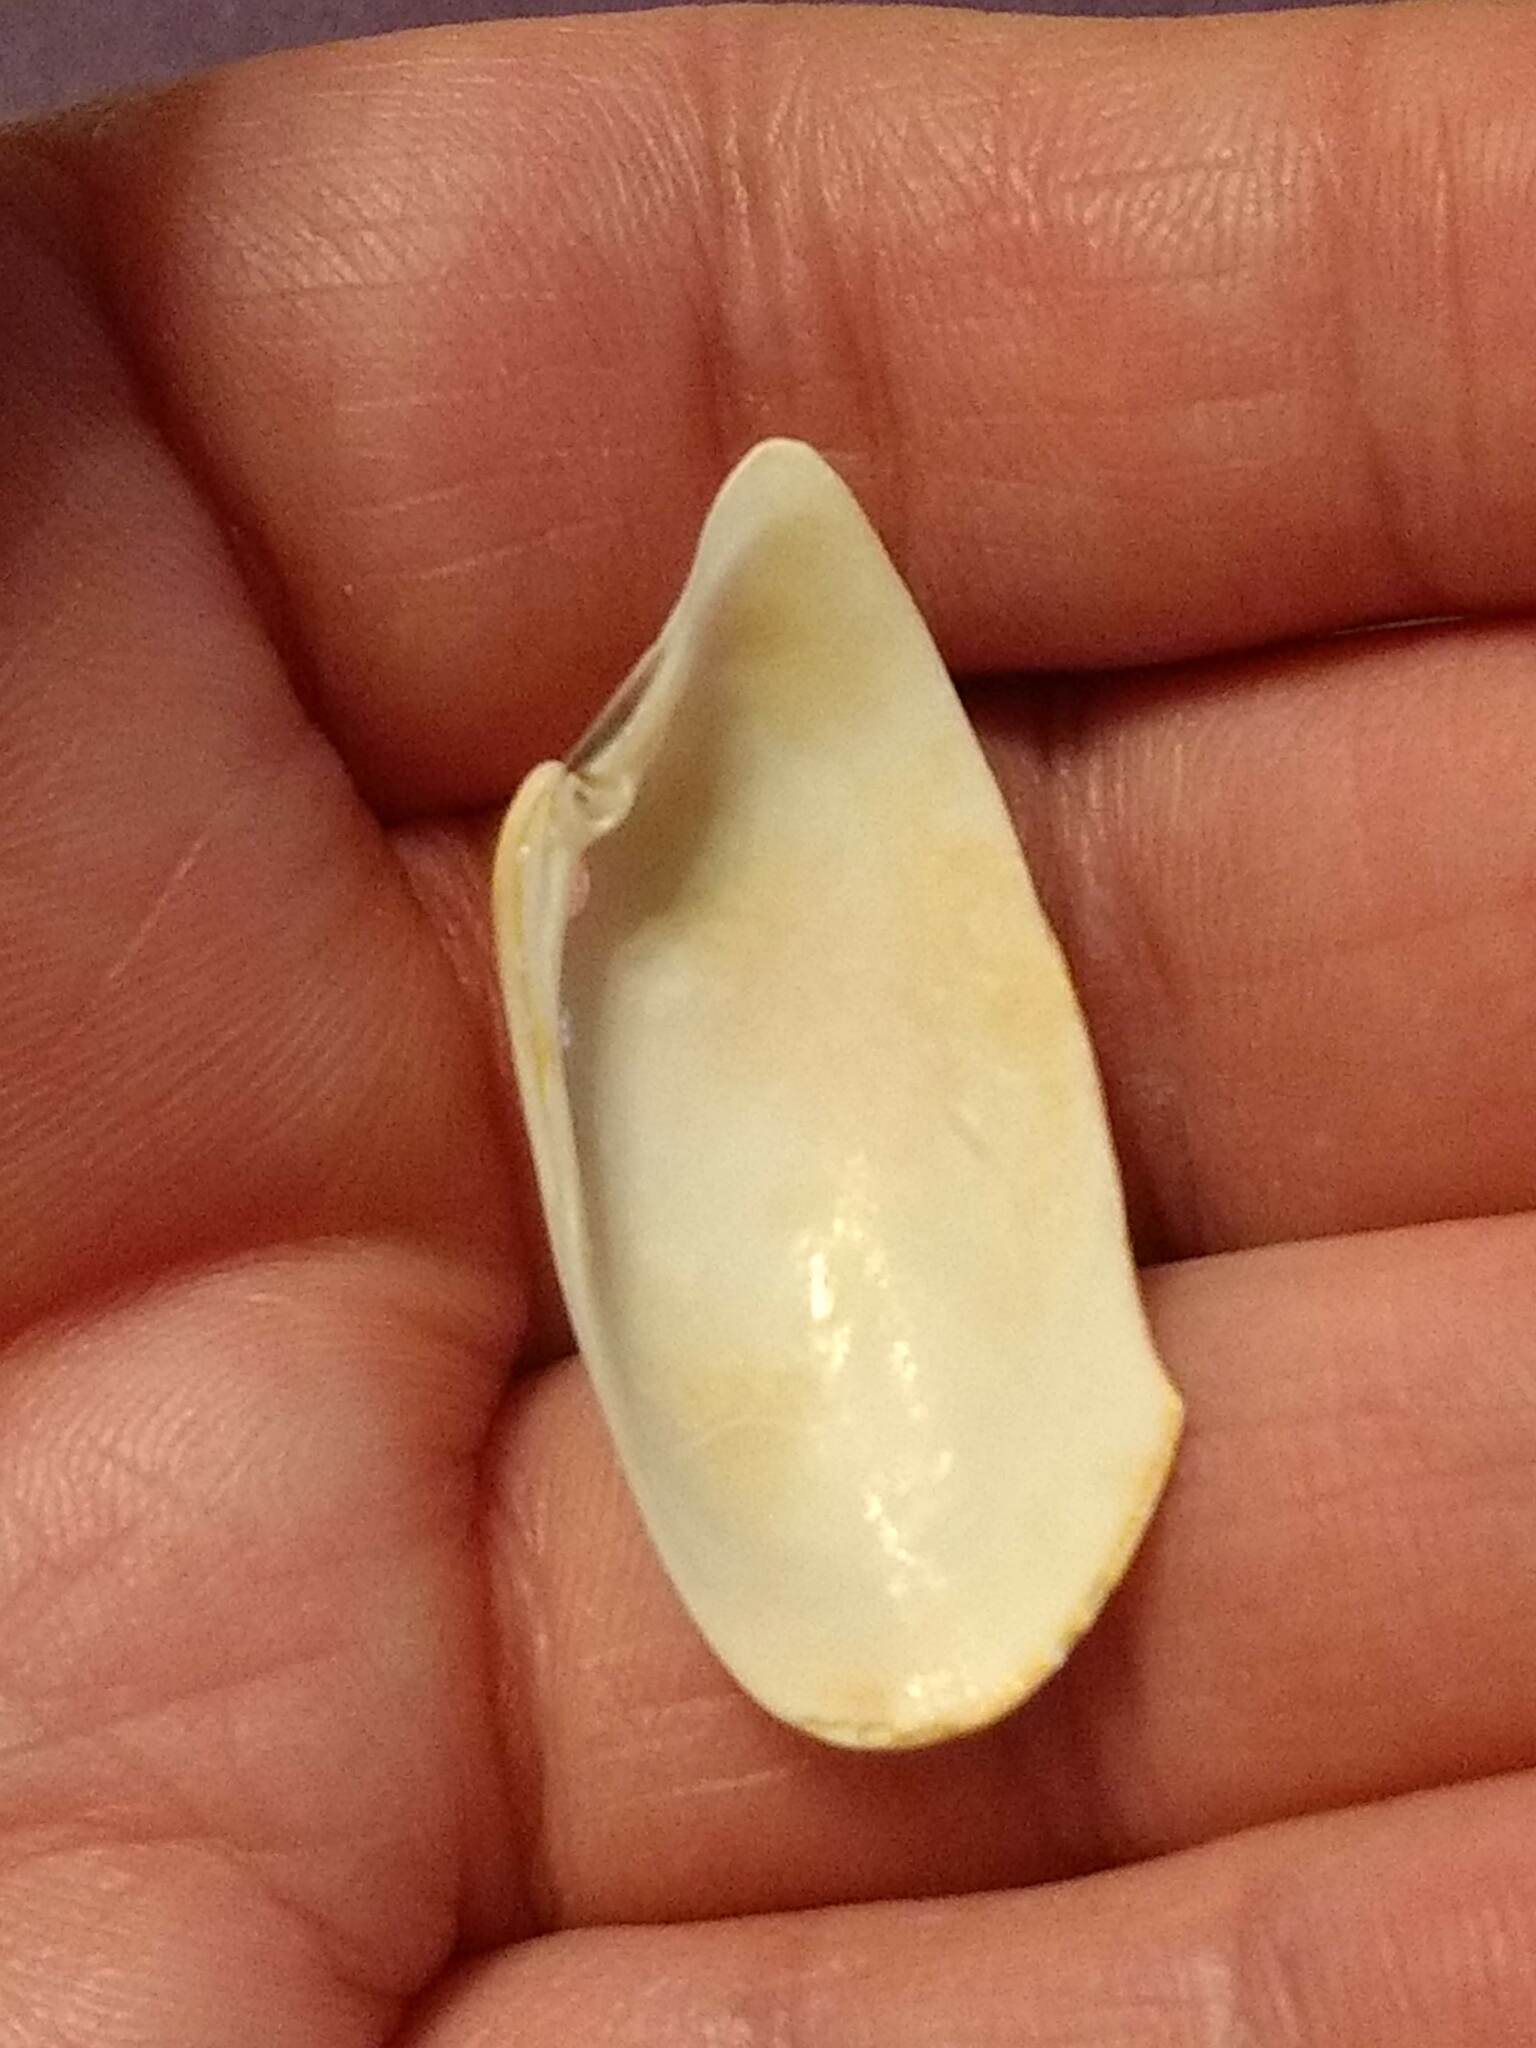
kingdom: Animalia
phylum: Mollusca
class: Bivalvia
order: Venerida
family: Veneridae
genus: Macrocallista
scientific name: Macrocallista nimbosa
